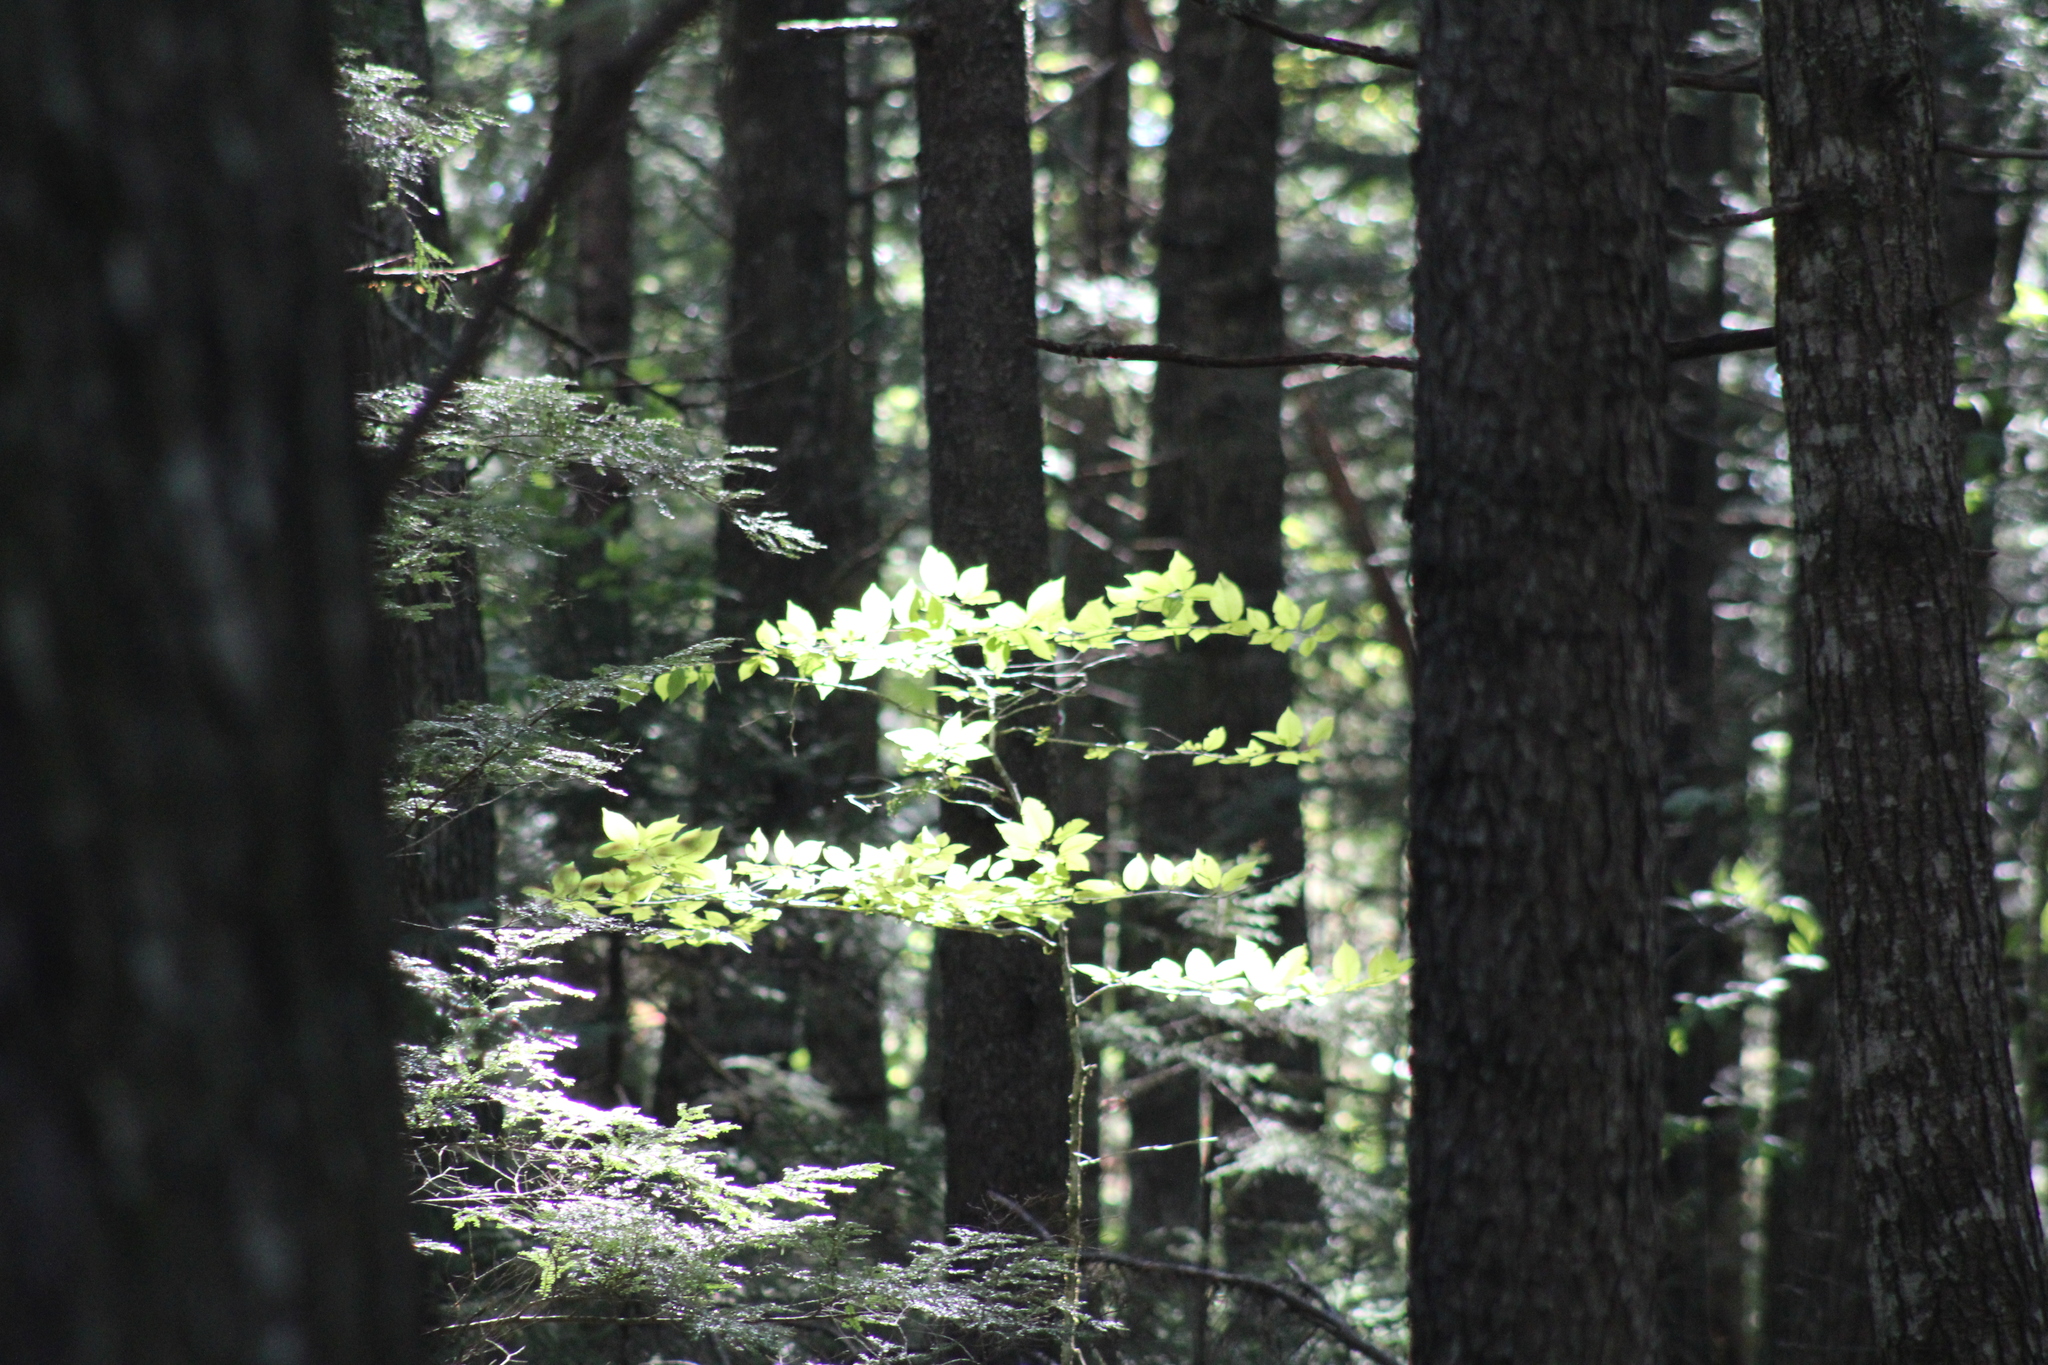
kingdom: Plantae
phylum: Tracheophyta
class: Magnoliopsida
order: Fagales
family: Fagaceae
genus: Fagus
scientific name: Fagus grandifolia
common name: American beech
